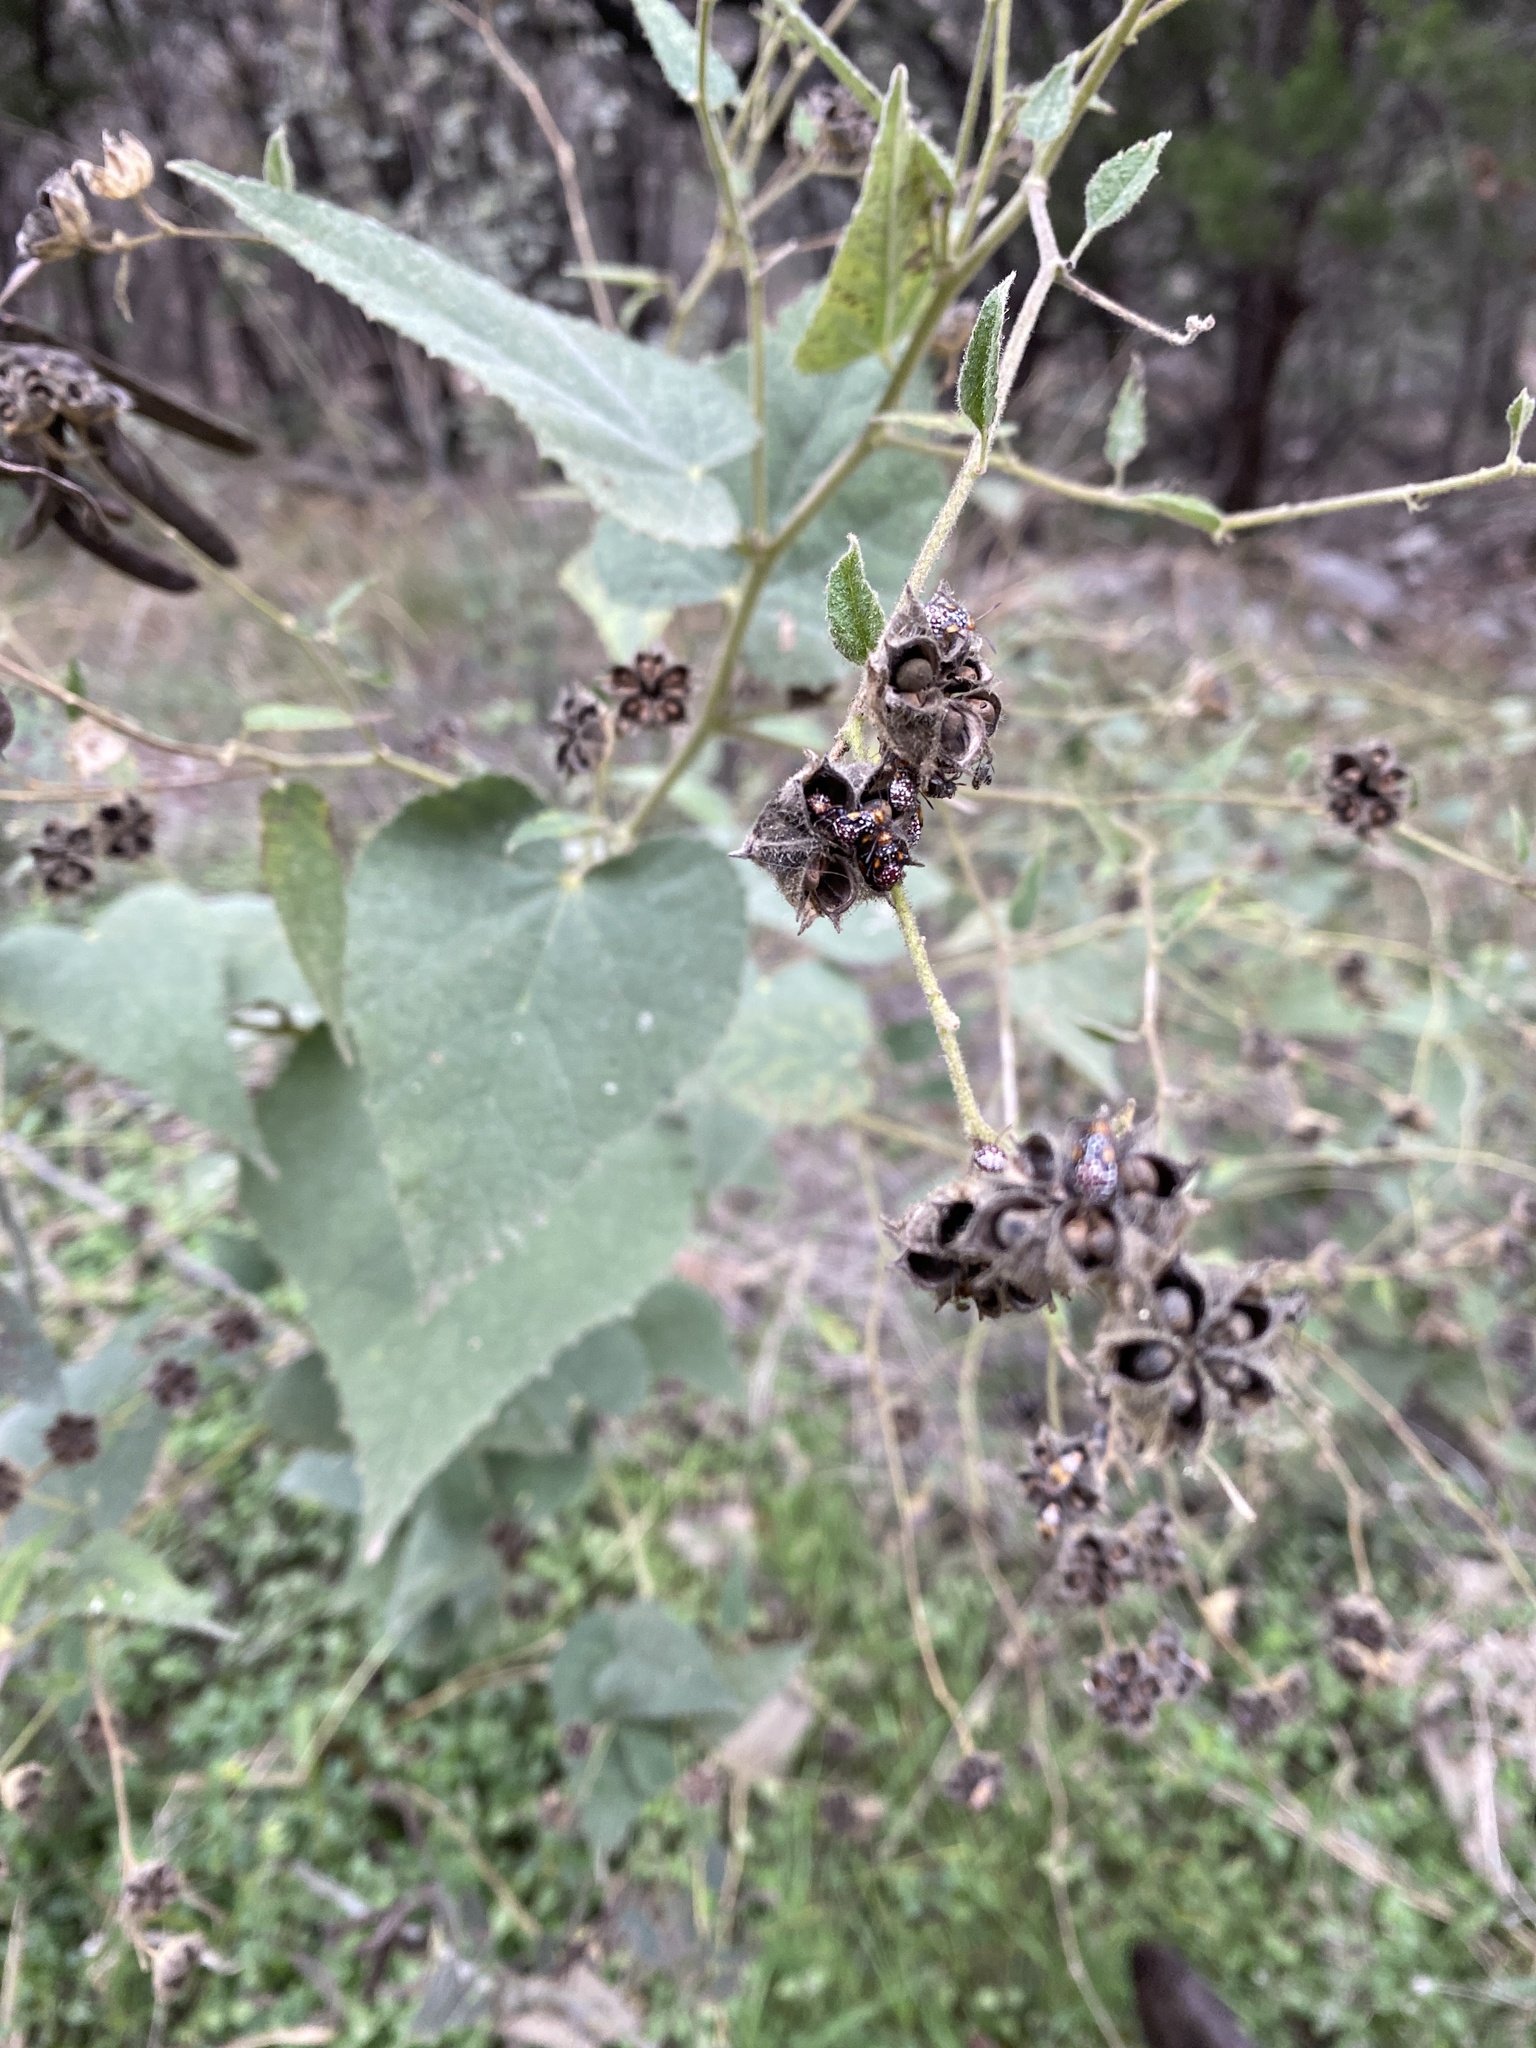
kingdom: Plantae
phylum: Tracheophyta
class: Magnoliopsida
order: Malvales
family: Malvaceae
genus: Allowissadula
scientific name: Allowissadula holosericea
